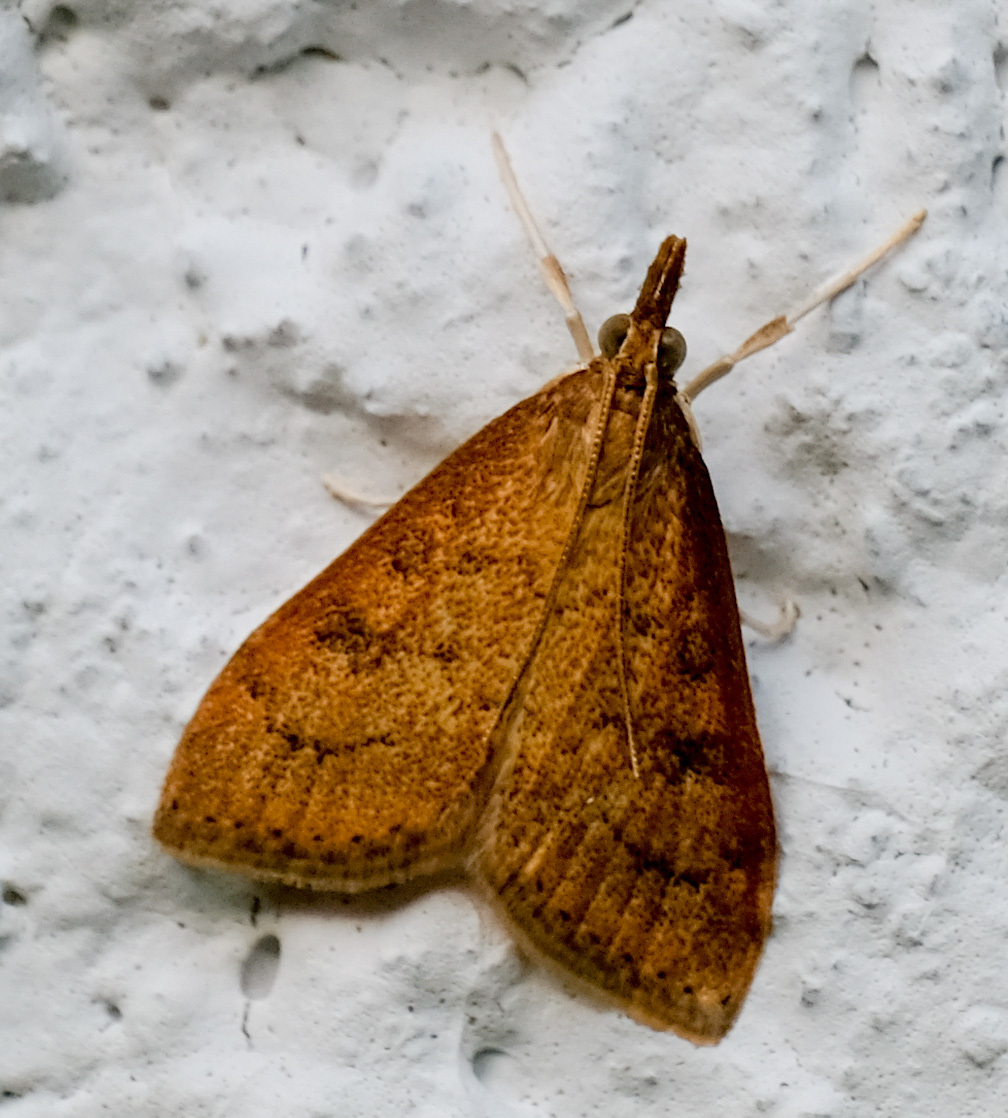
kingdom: Animalia
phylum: Arthropoda
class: Insecta
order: Lepidoptera
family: Crambidae
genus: Udea
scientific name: Udea rubigalis
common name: Celery leaftier moth
